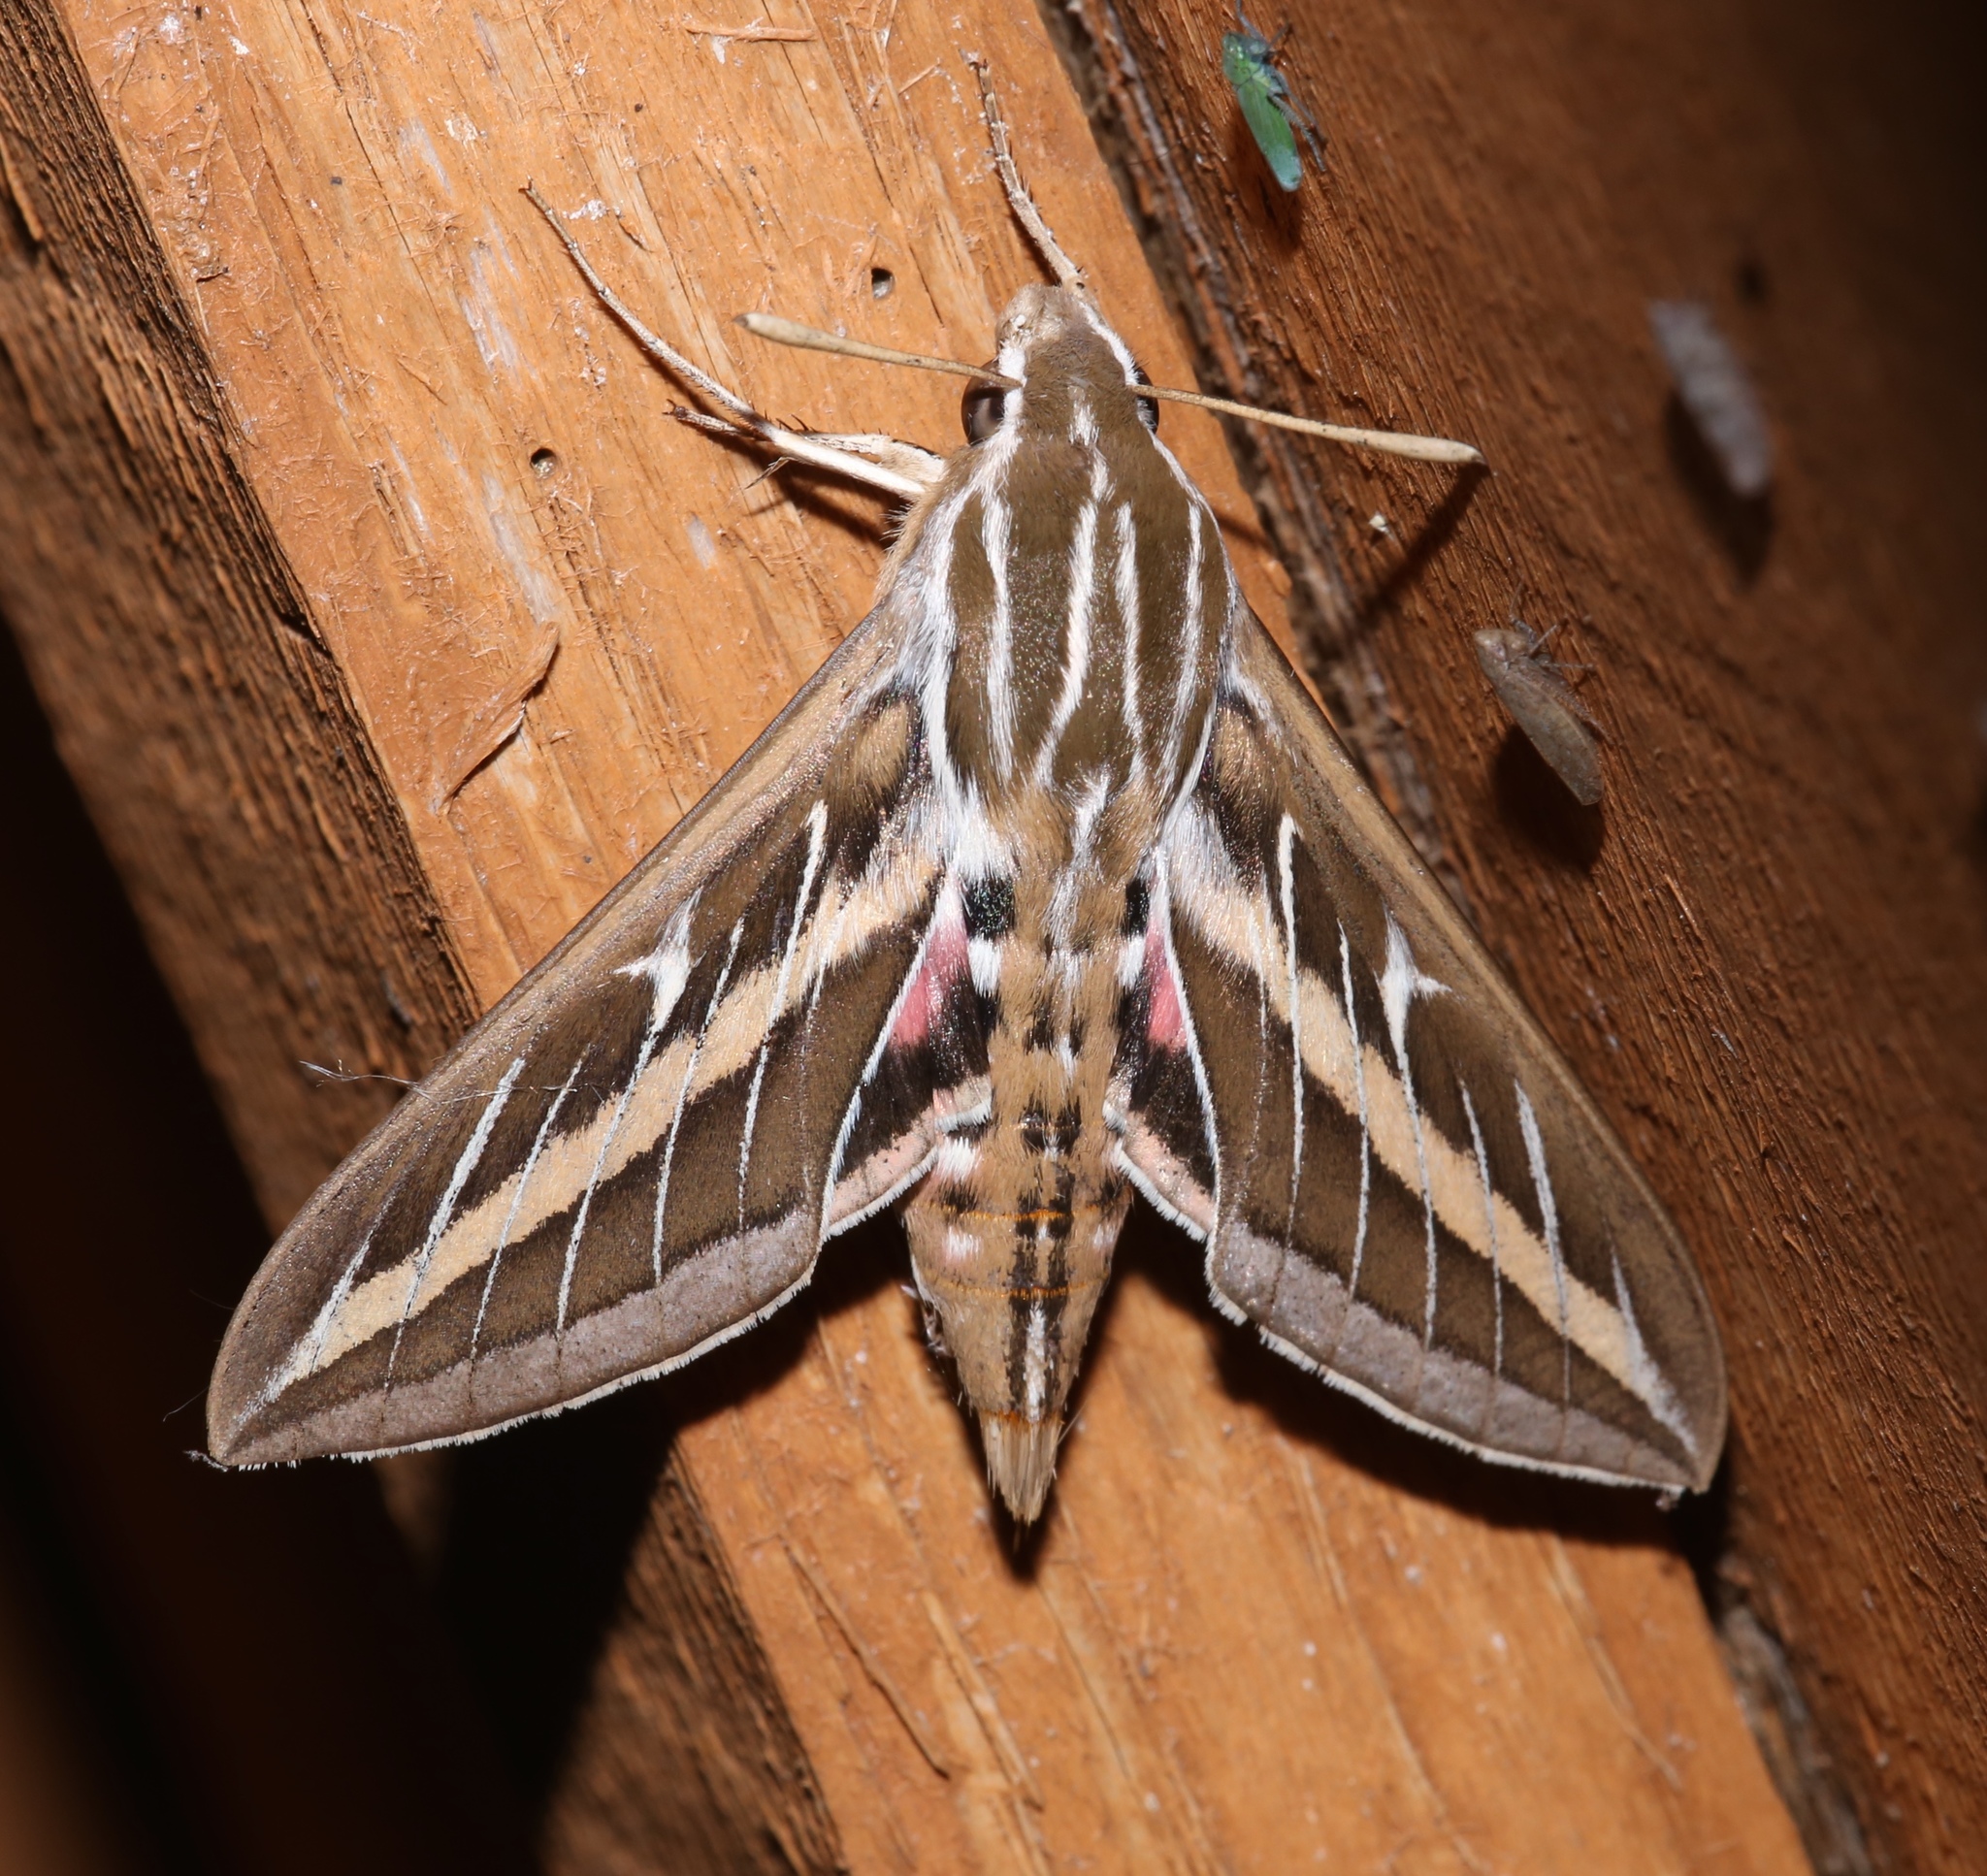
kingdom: Animalia
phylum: Arthropoda
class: Insecta
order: Lepidoptera
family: Sphingidae
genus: Hyles
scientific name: Hyles lineata
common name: White-lined sphinx
